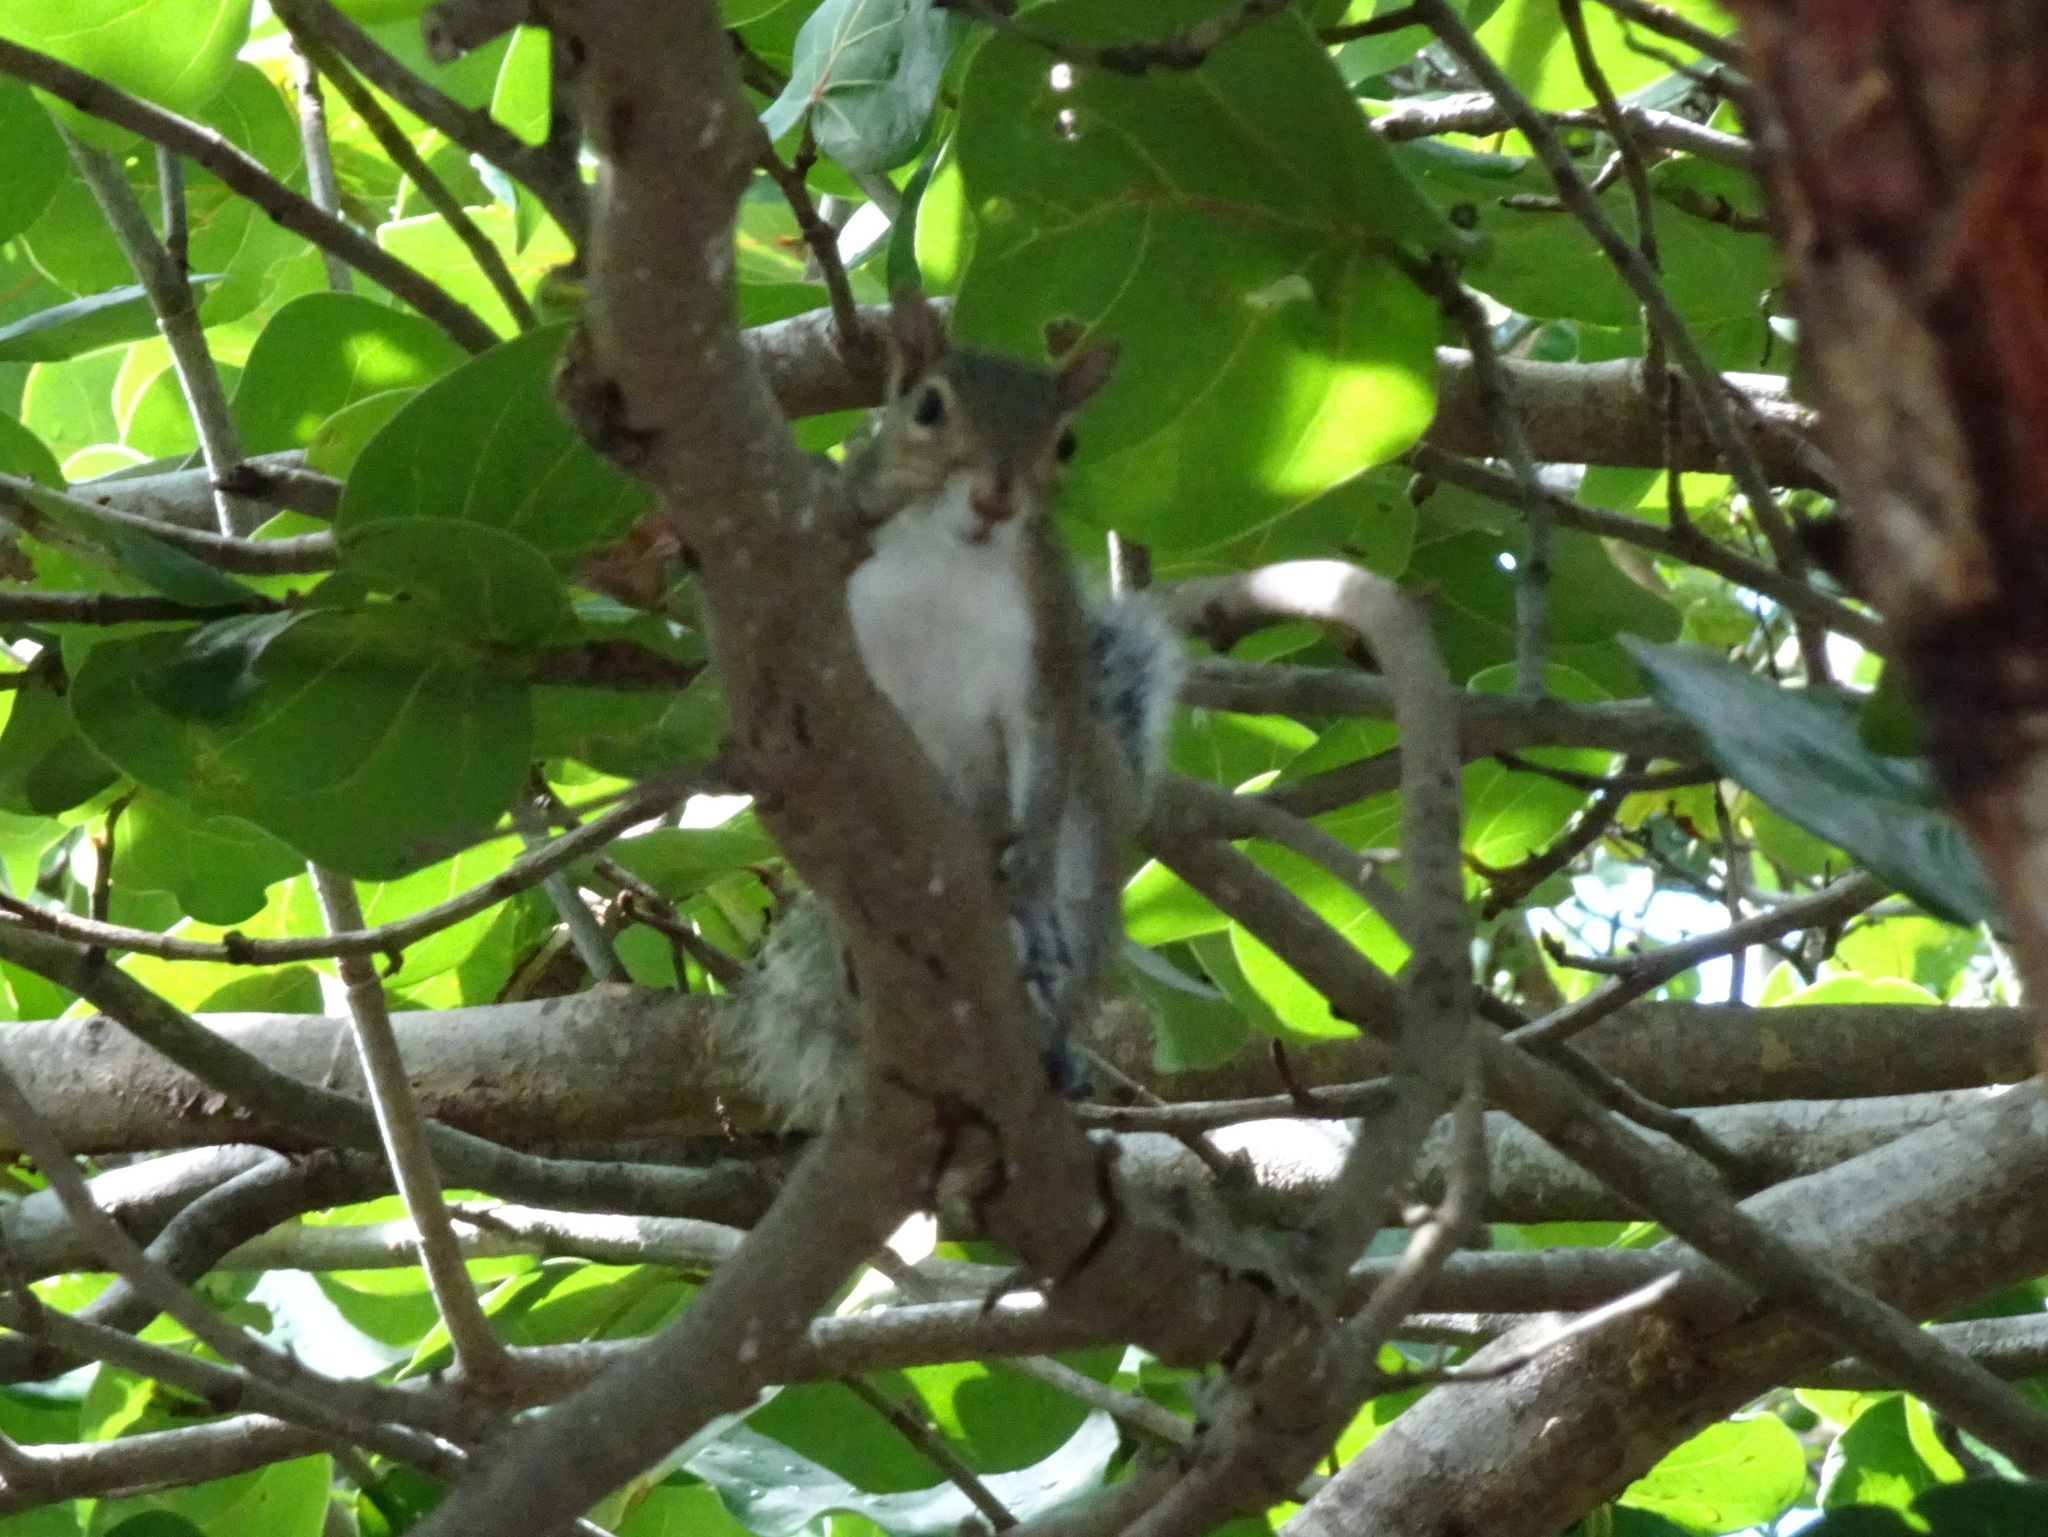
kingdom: Animalia
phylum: Chordata
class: Mammalia
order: Rodentia
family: Sciuridae
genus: Sciurus
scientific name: Sciurus carolinensis
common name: Eastern gray squirrel
